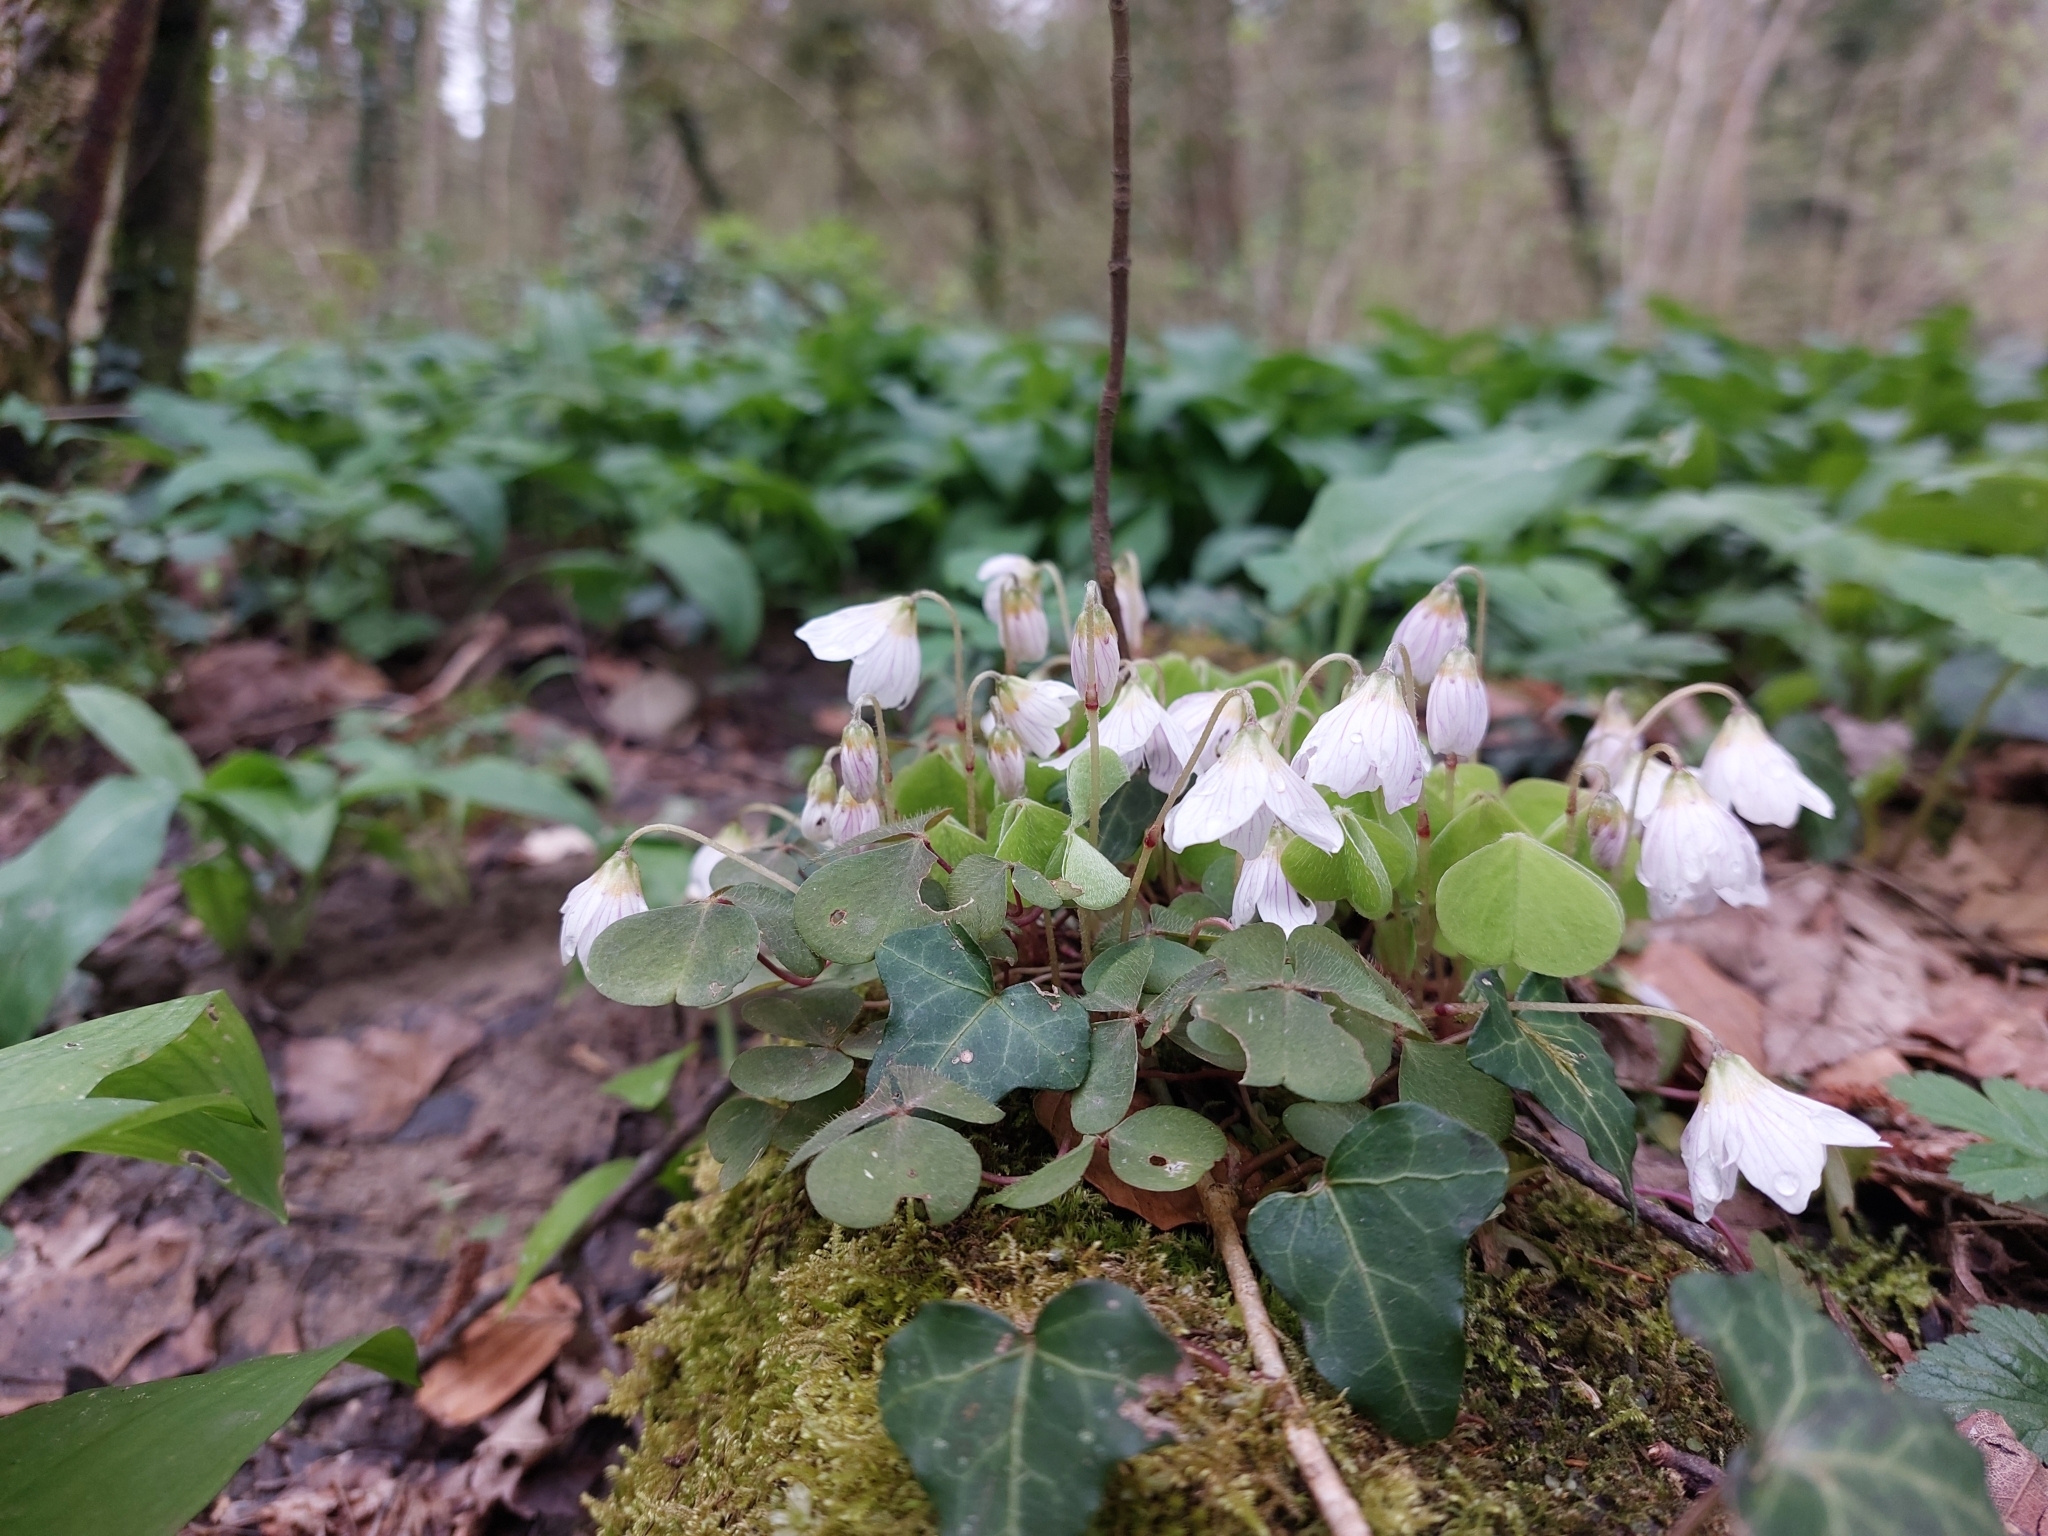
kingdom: Plantae
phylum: Tracheophyta
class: Magnoliopsida
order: Oxalidales
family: Oxalidaceae
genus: Oxalis
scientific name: Oxalis acetosella
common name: Wood-sorrel
